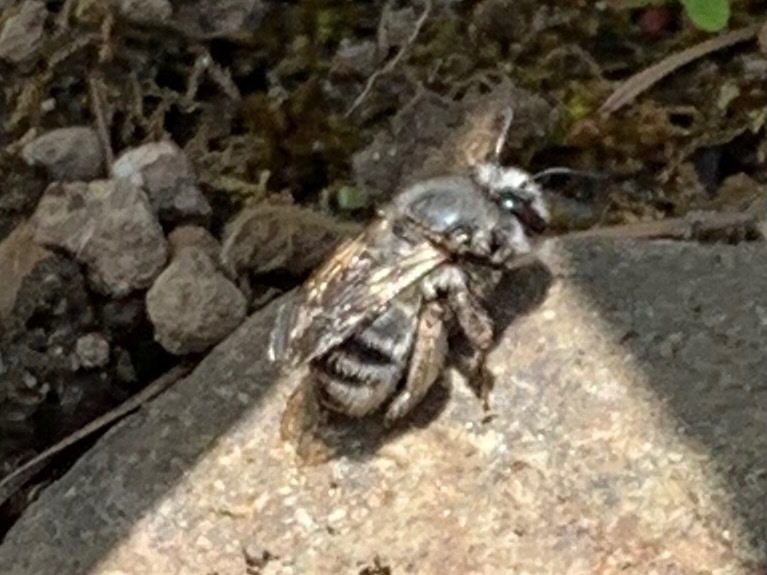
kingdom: Animalia
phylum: Arthropoda
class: Insecta
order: Hymenoptera
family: Apidae
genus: Anthophora
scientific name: Anthophora pacifica
